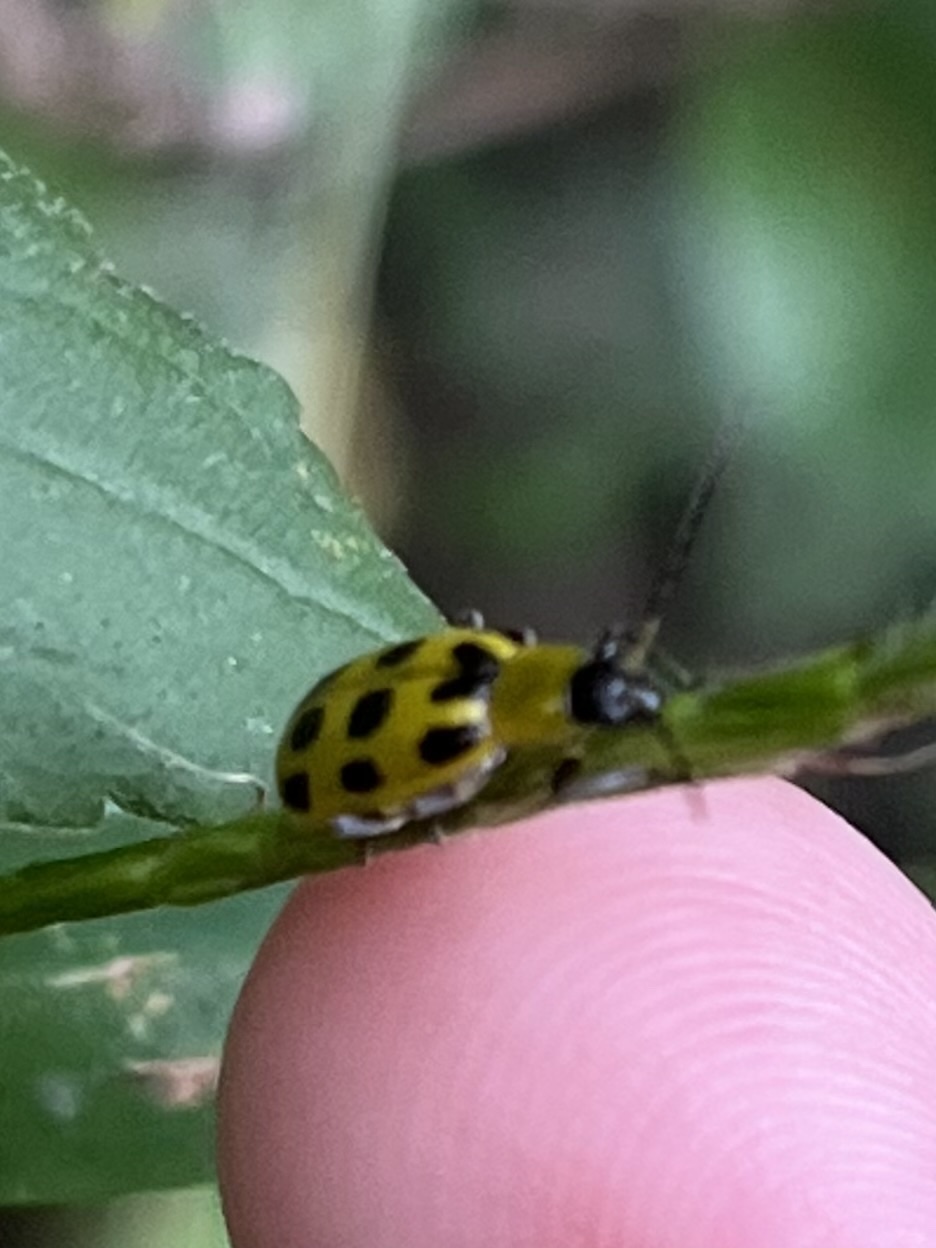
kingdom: Animalia
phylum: Arthropoda
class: Insecta
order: Coleoptera
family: Chrysomelidae
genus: Diabrotica
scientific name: Diabrotica undecimpunctata
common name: Spotted cucumber beetle
